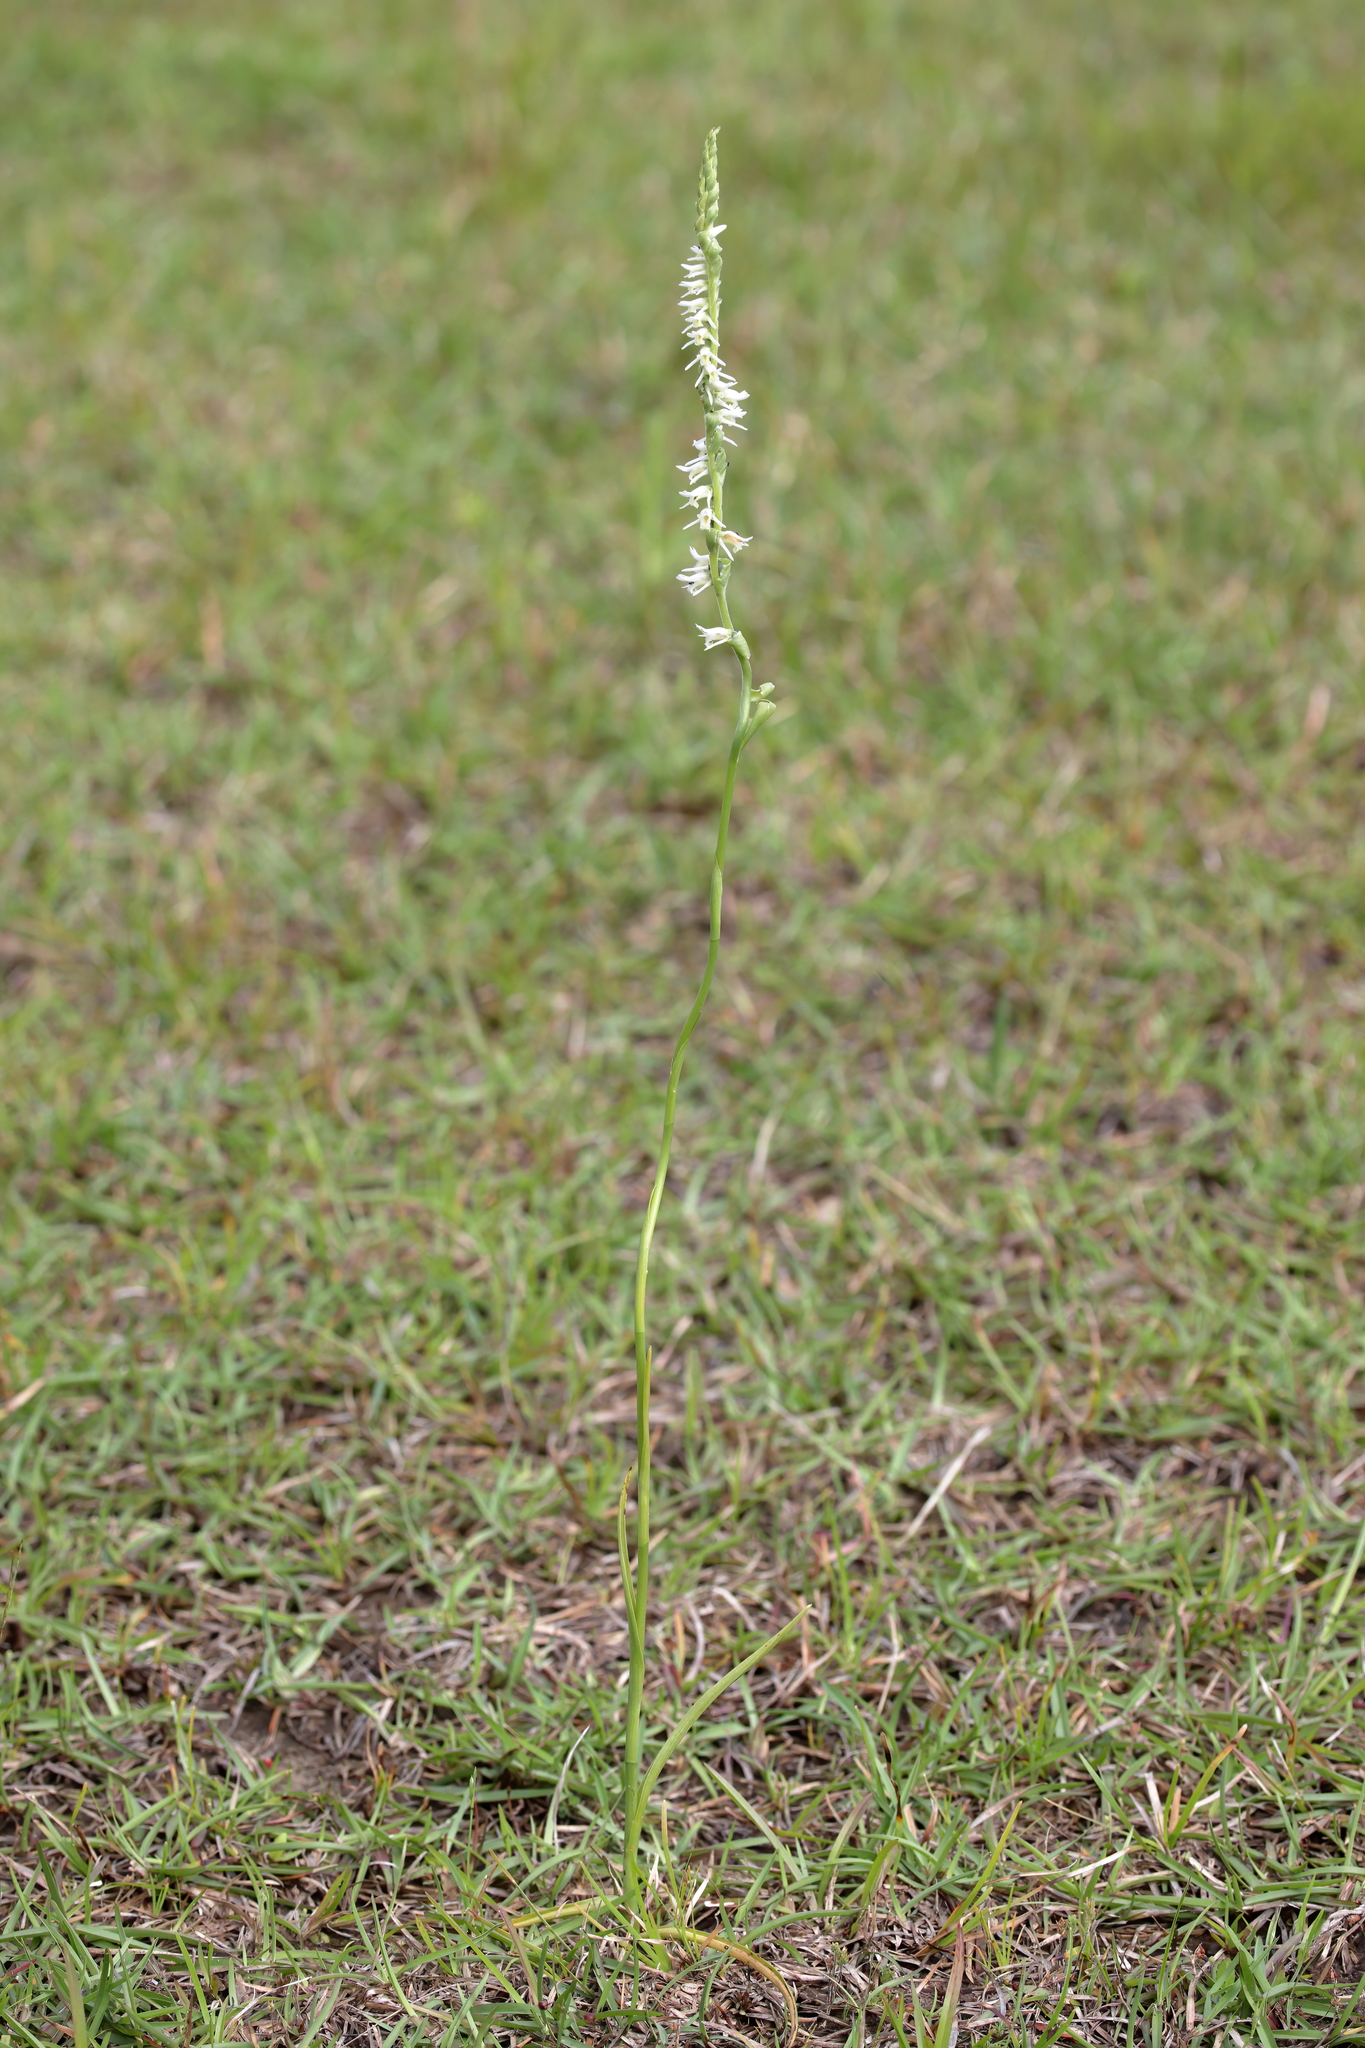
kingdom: Plantae
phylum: Tracheophyta
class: Liliopsida
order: Asparagales
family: Orchidaceae
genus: Spiranthes
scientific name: Spiranthes vernalis
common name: Spring ladies'-tresses
